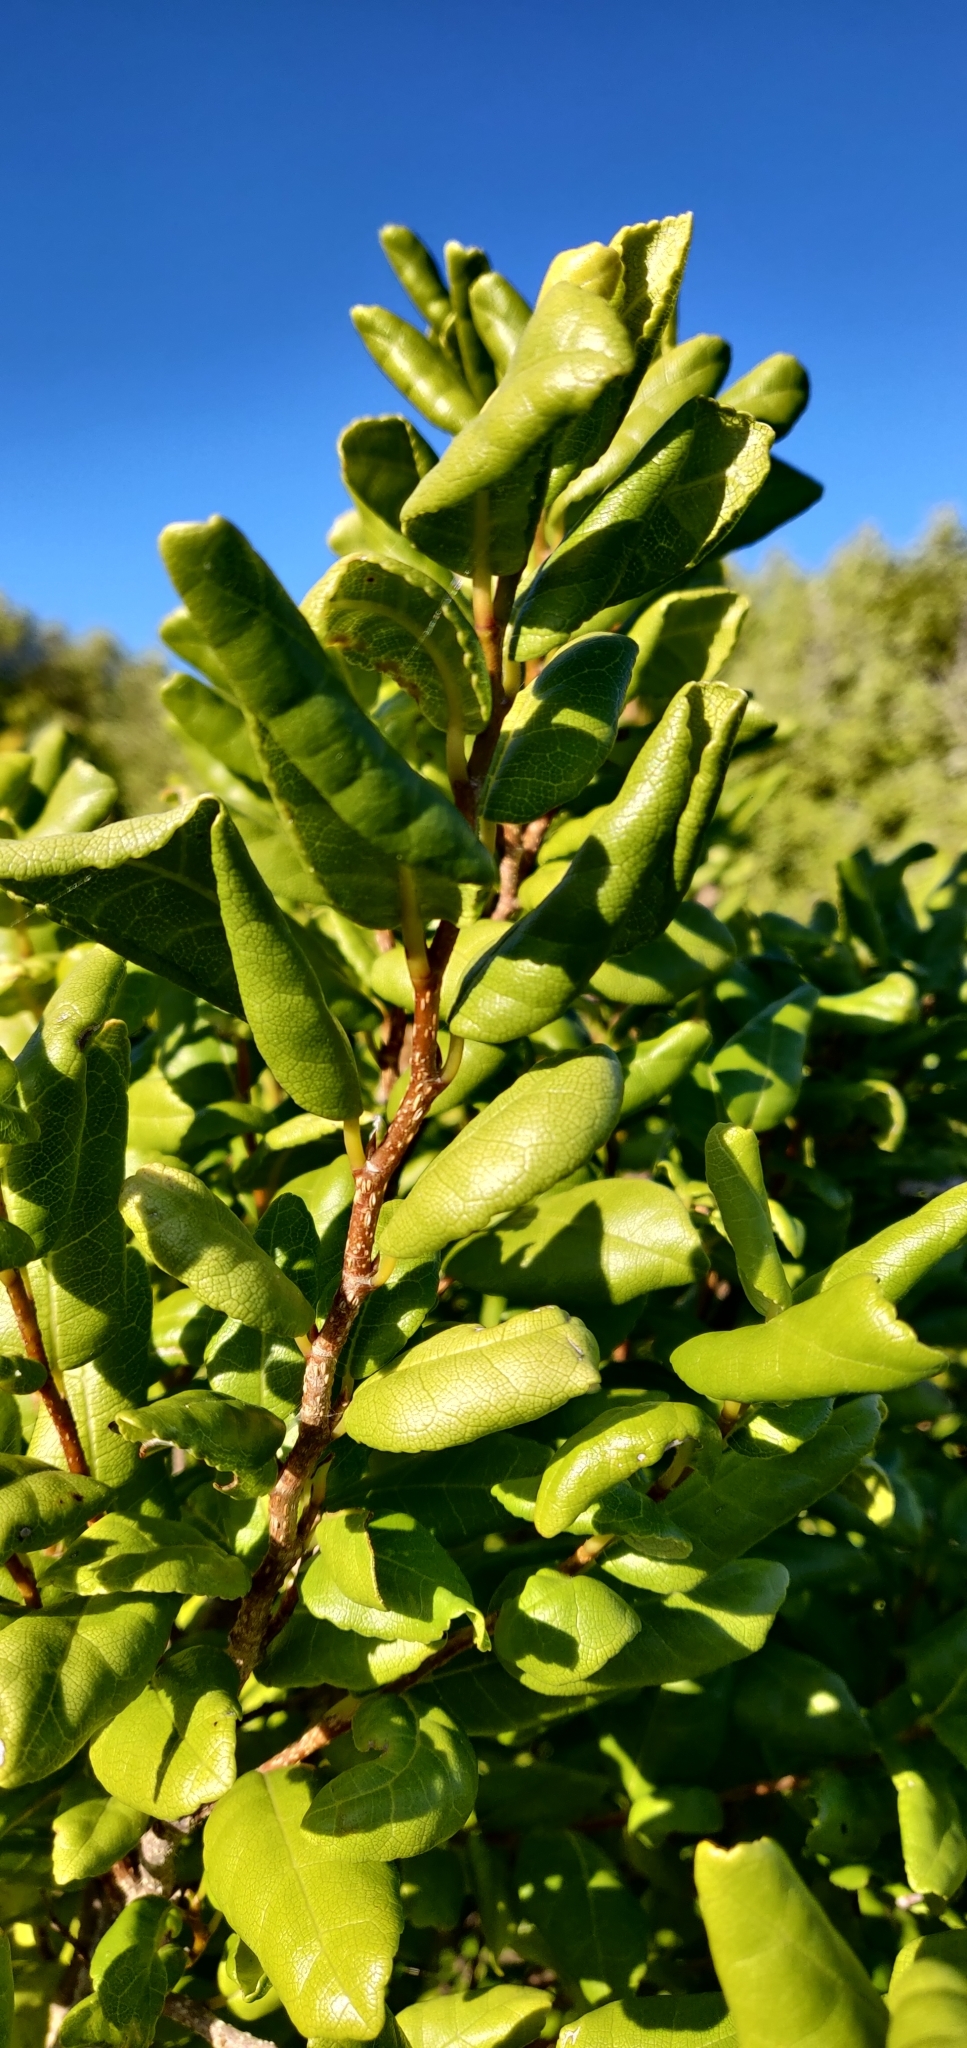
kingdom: Plantae
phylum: Tracheophyta
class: Magnoliopsida
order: Rosales
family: Moraceae
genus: Paratrophis
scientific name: Paratrophis banksii
